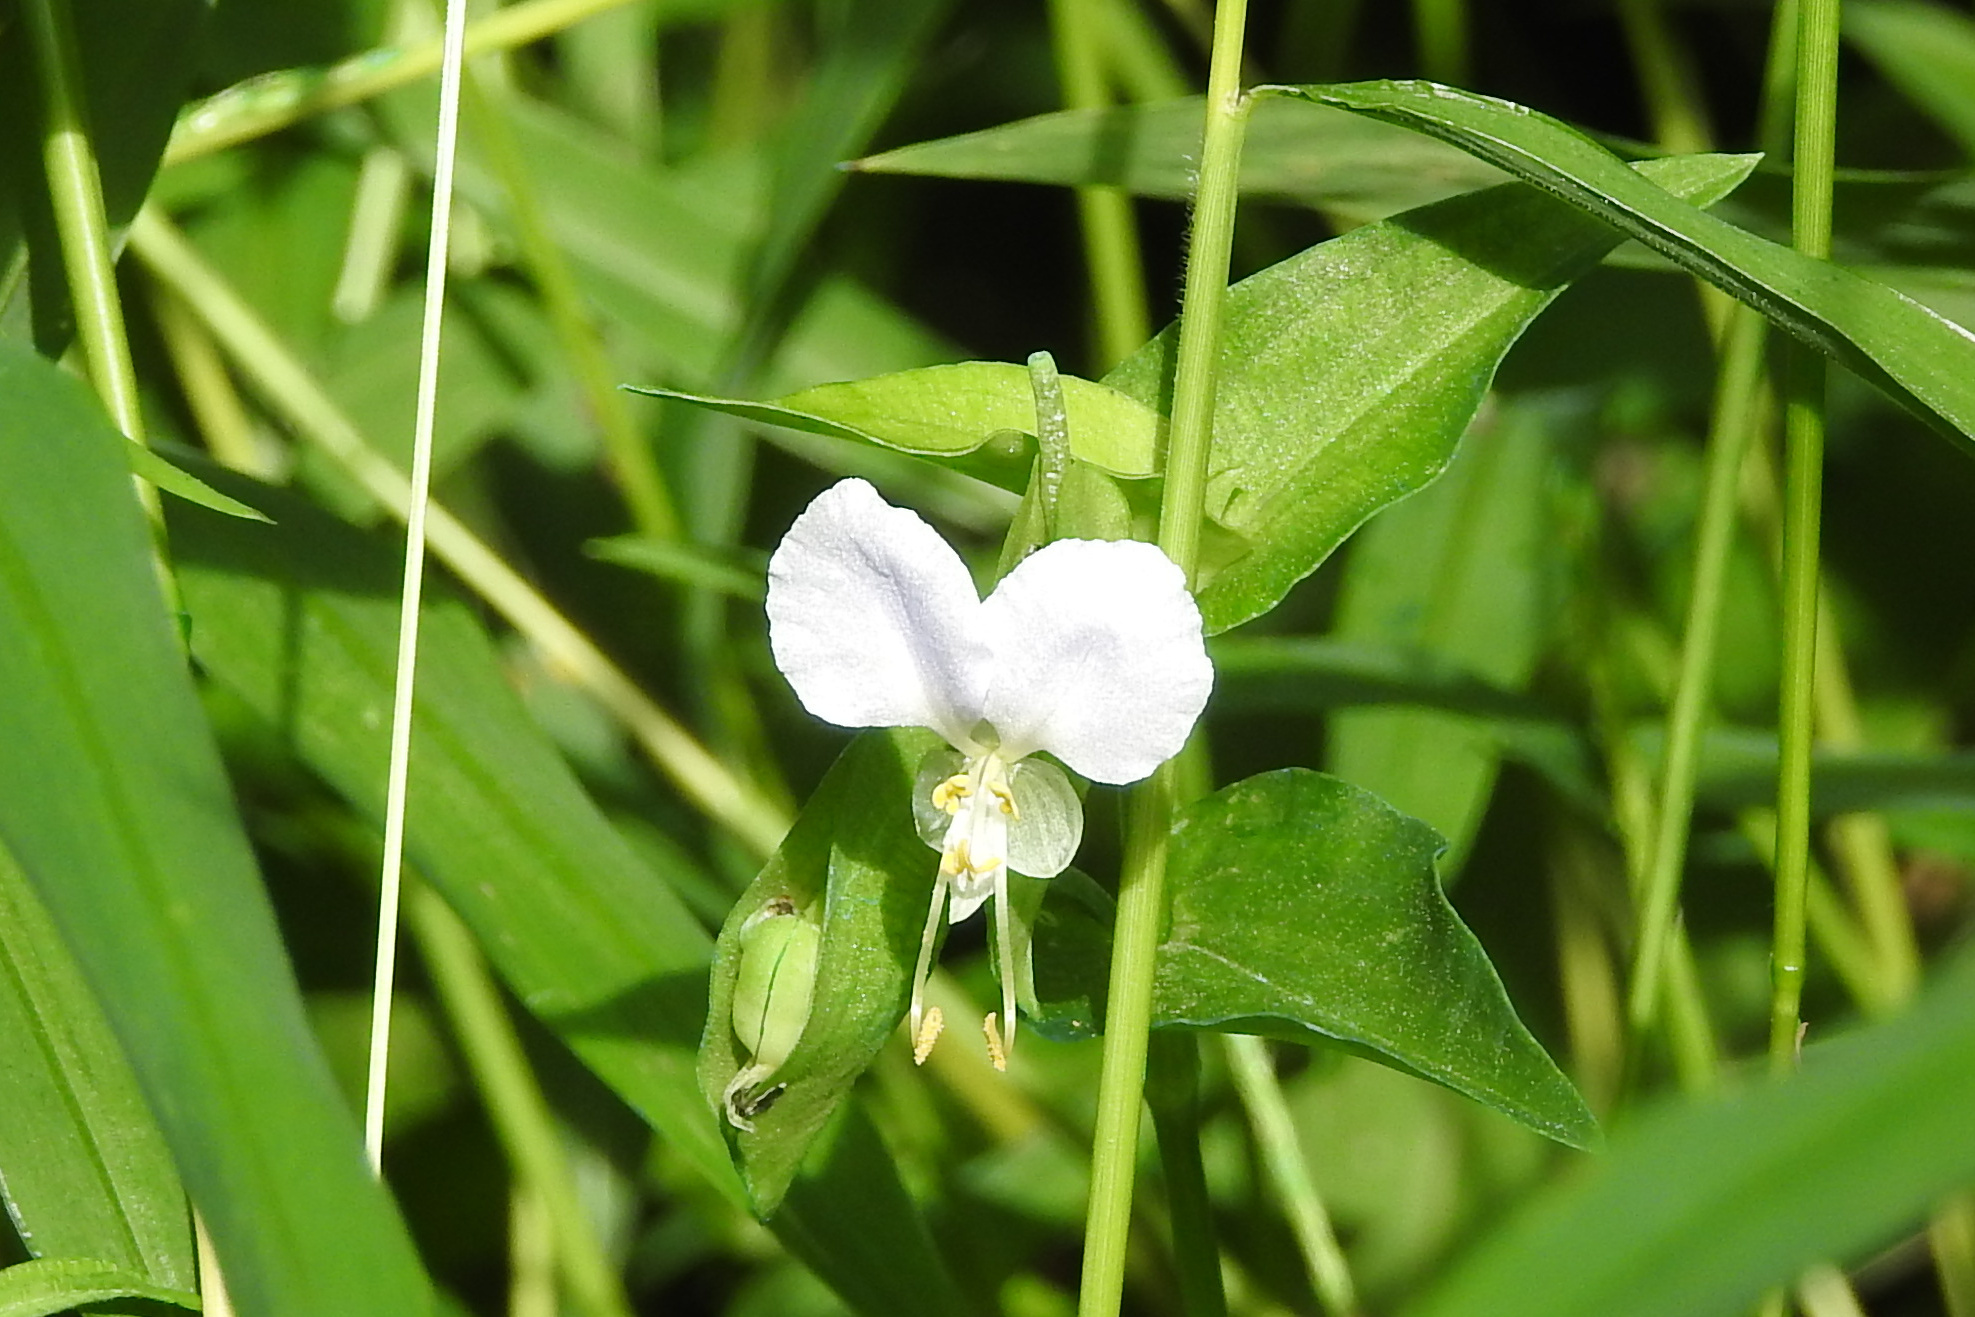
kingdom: Plantae
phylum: Tracheophyta
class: Liliopsida
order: Commelinales
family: Commelinaceae
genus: Commelina
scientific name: Commelina communis
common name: Asiatic dayflower
